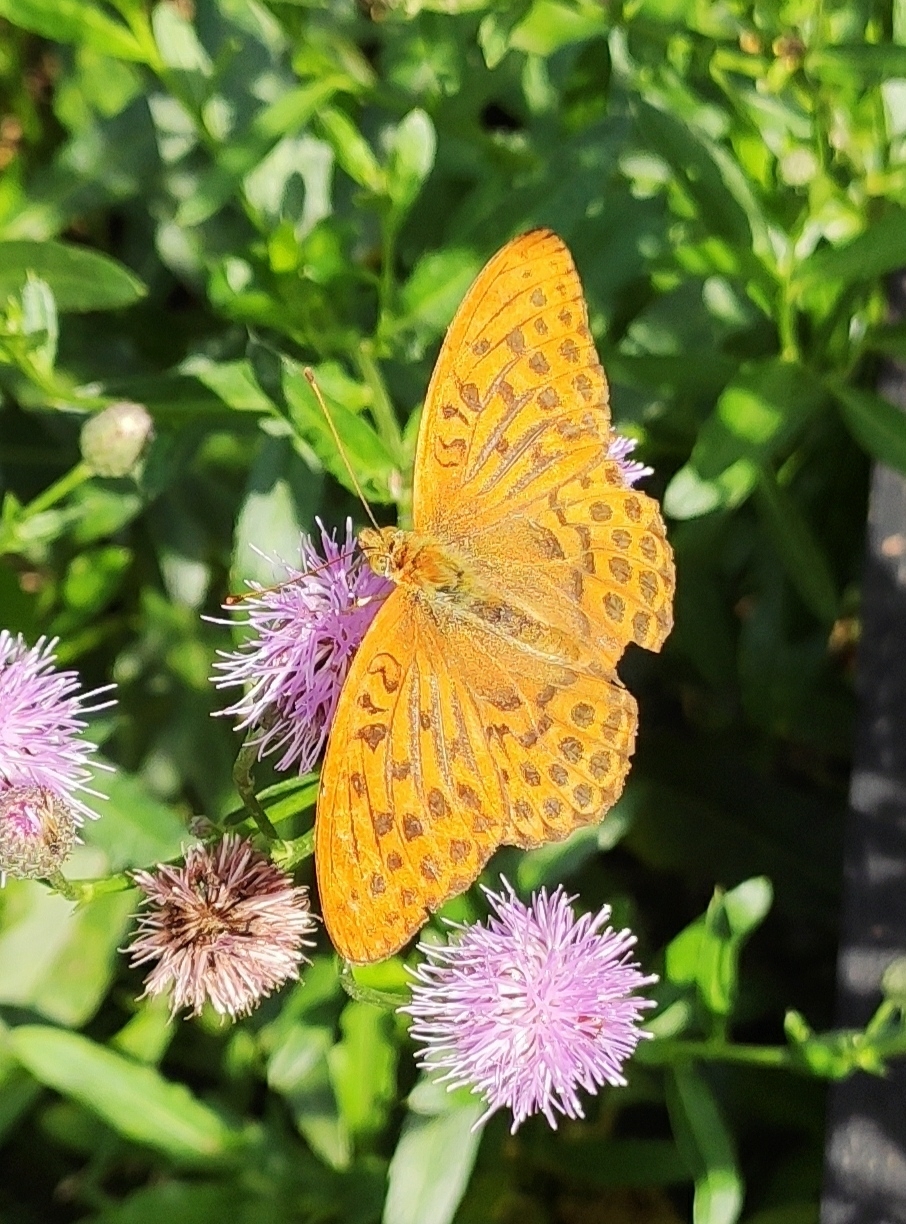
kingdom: Animalia
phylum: Arthropoda
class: Insecta
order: Lepidoptera
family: Nymphalidae
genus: Argynnis
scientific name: Argynnis paphia
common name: Silver-washed fritillary
